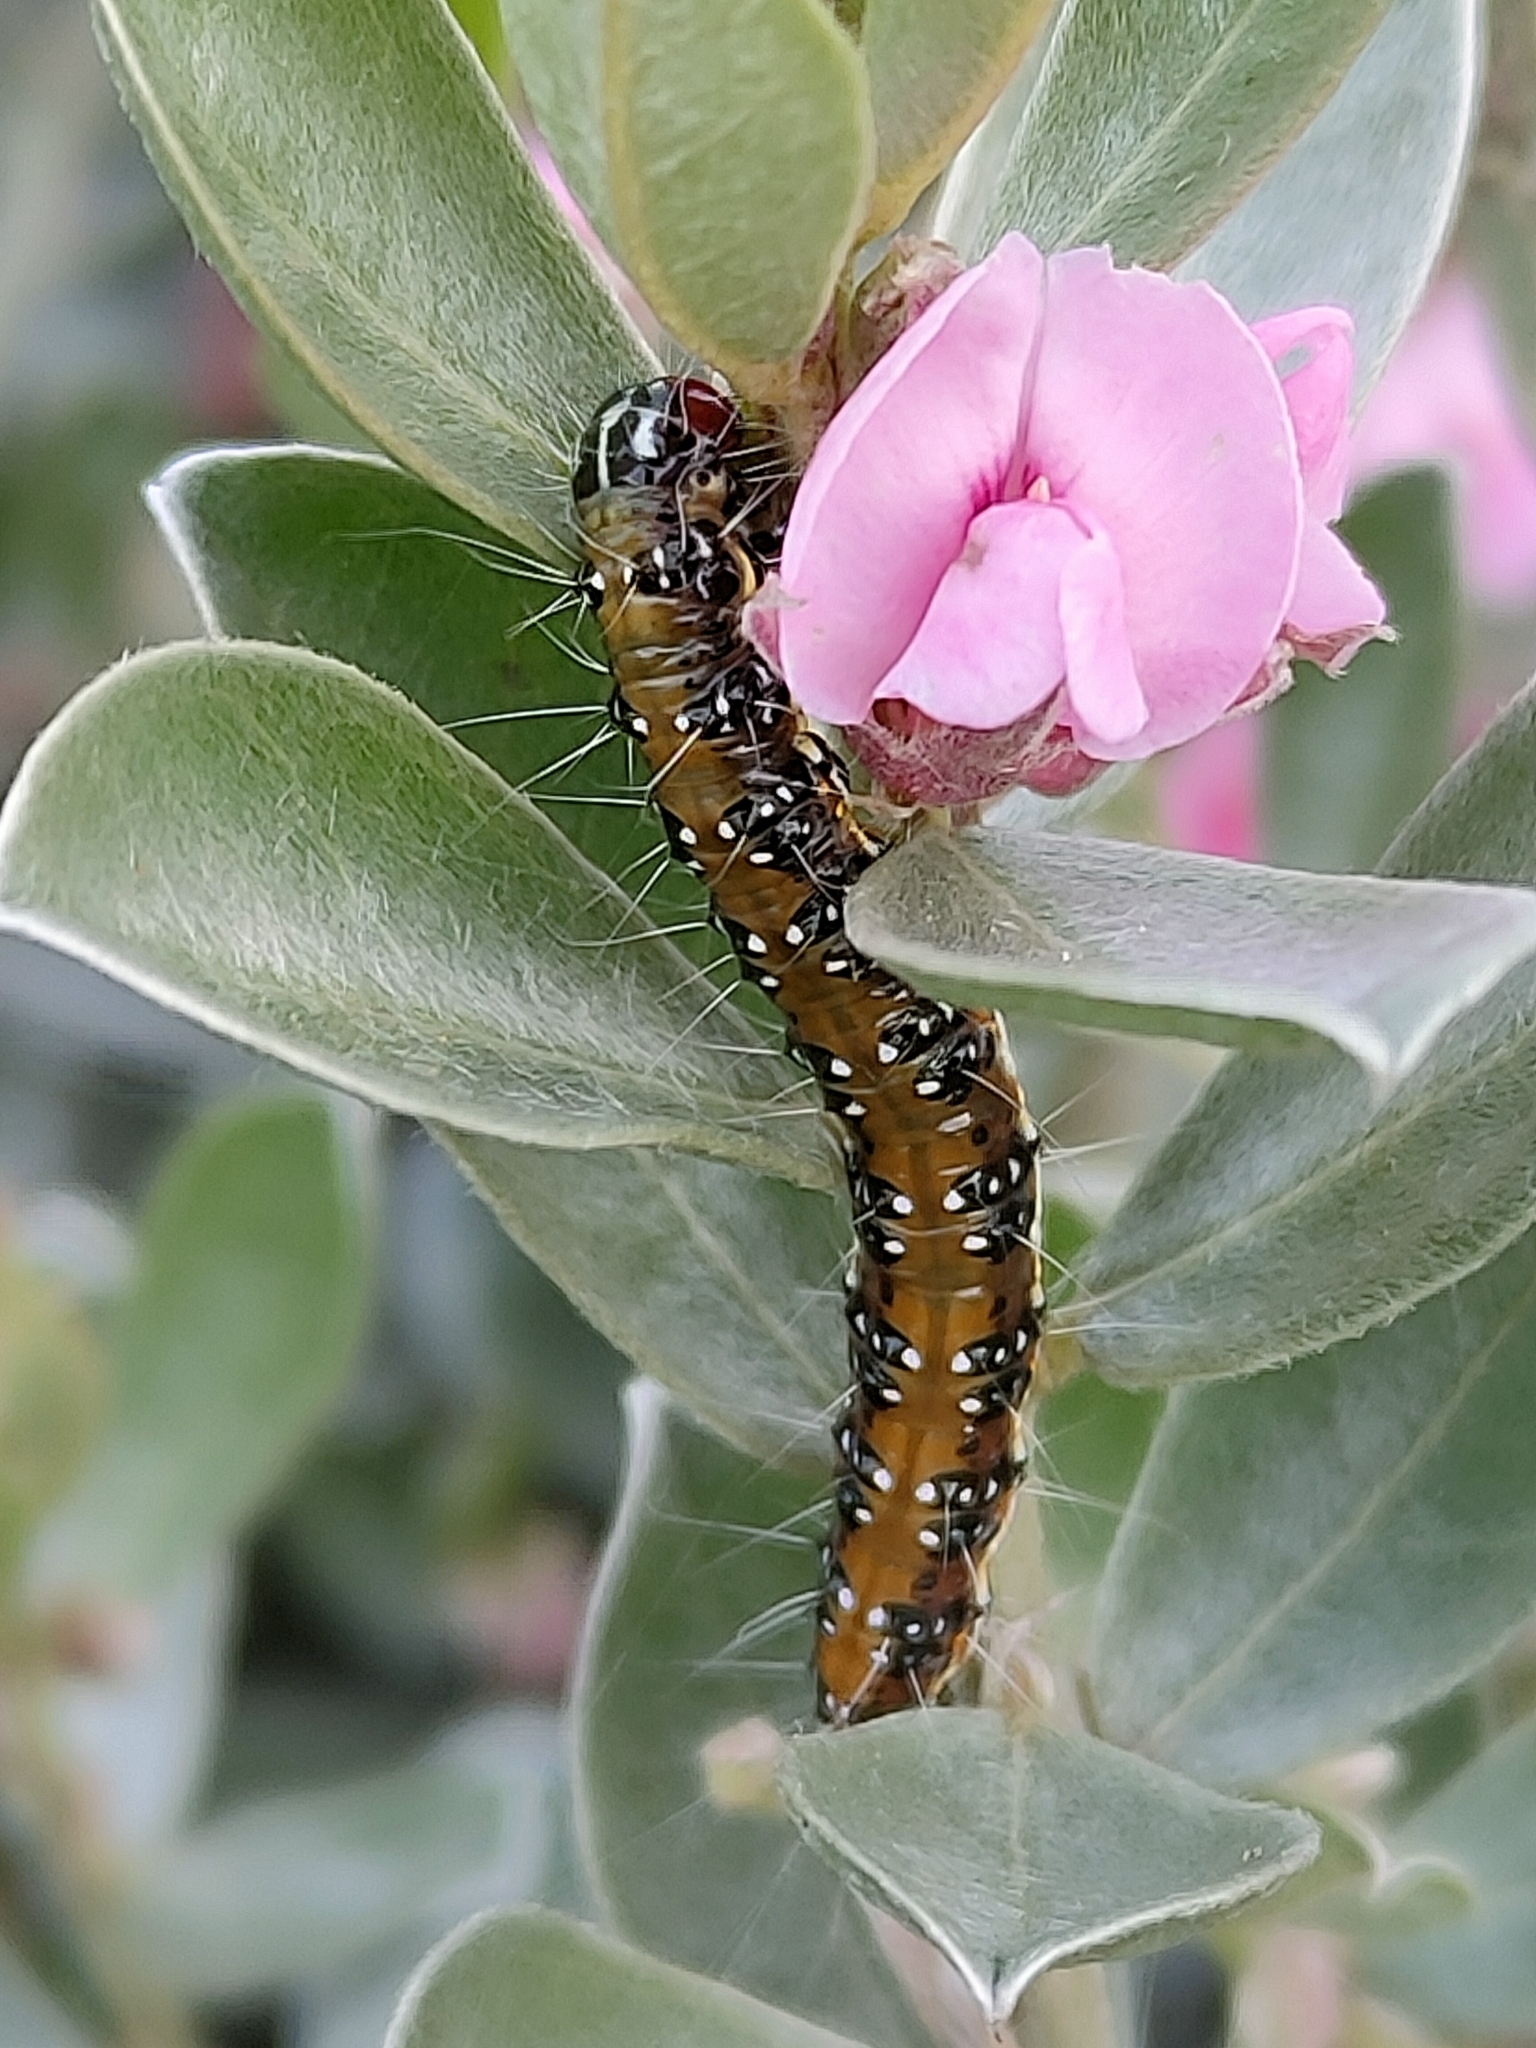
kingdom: Animalia
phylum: Arthropoda
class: Insecta
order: Lepidoptera
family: Crambidae
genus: Uresiphita
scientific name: Uresiphita ornithopteralis
